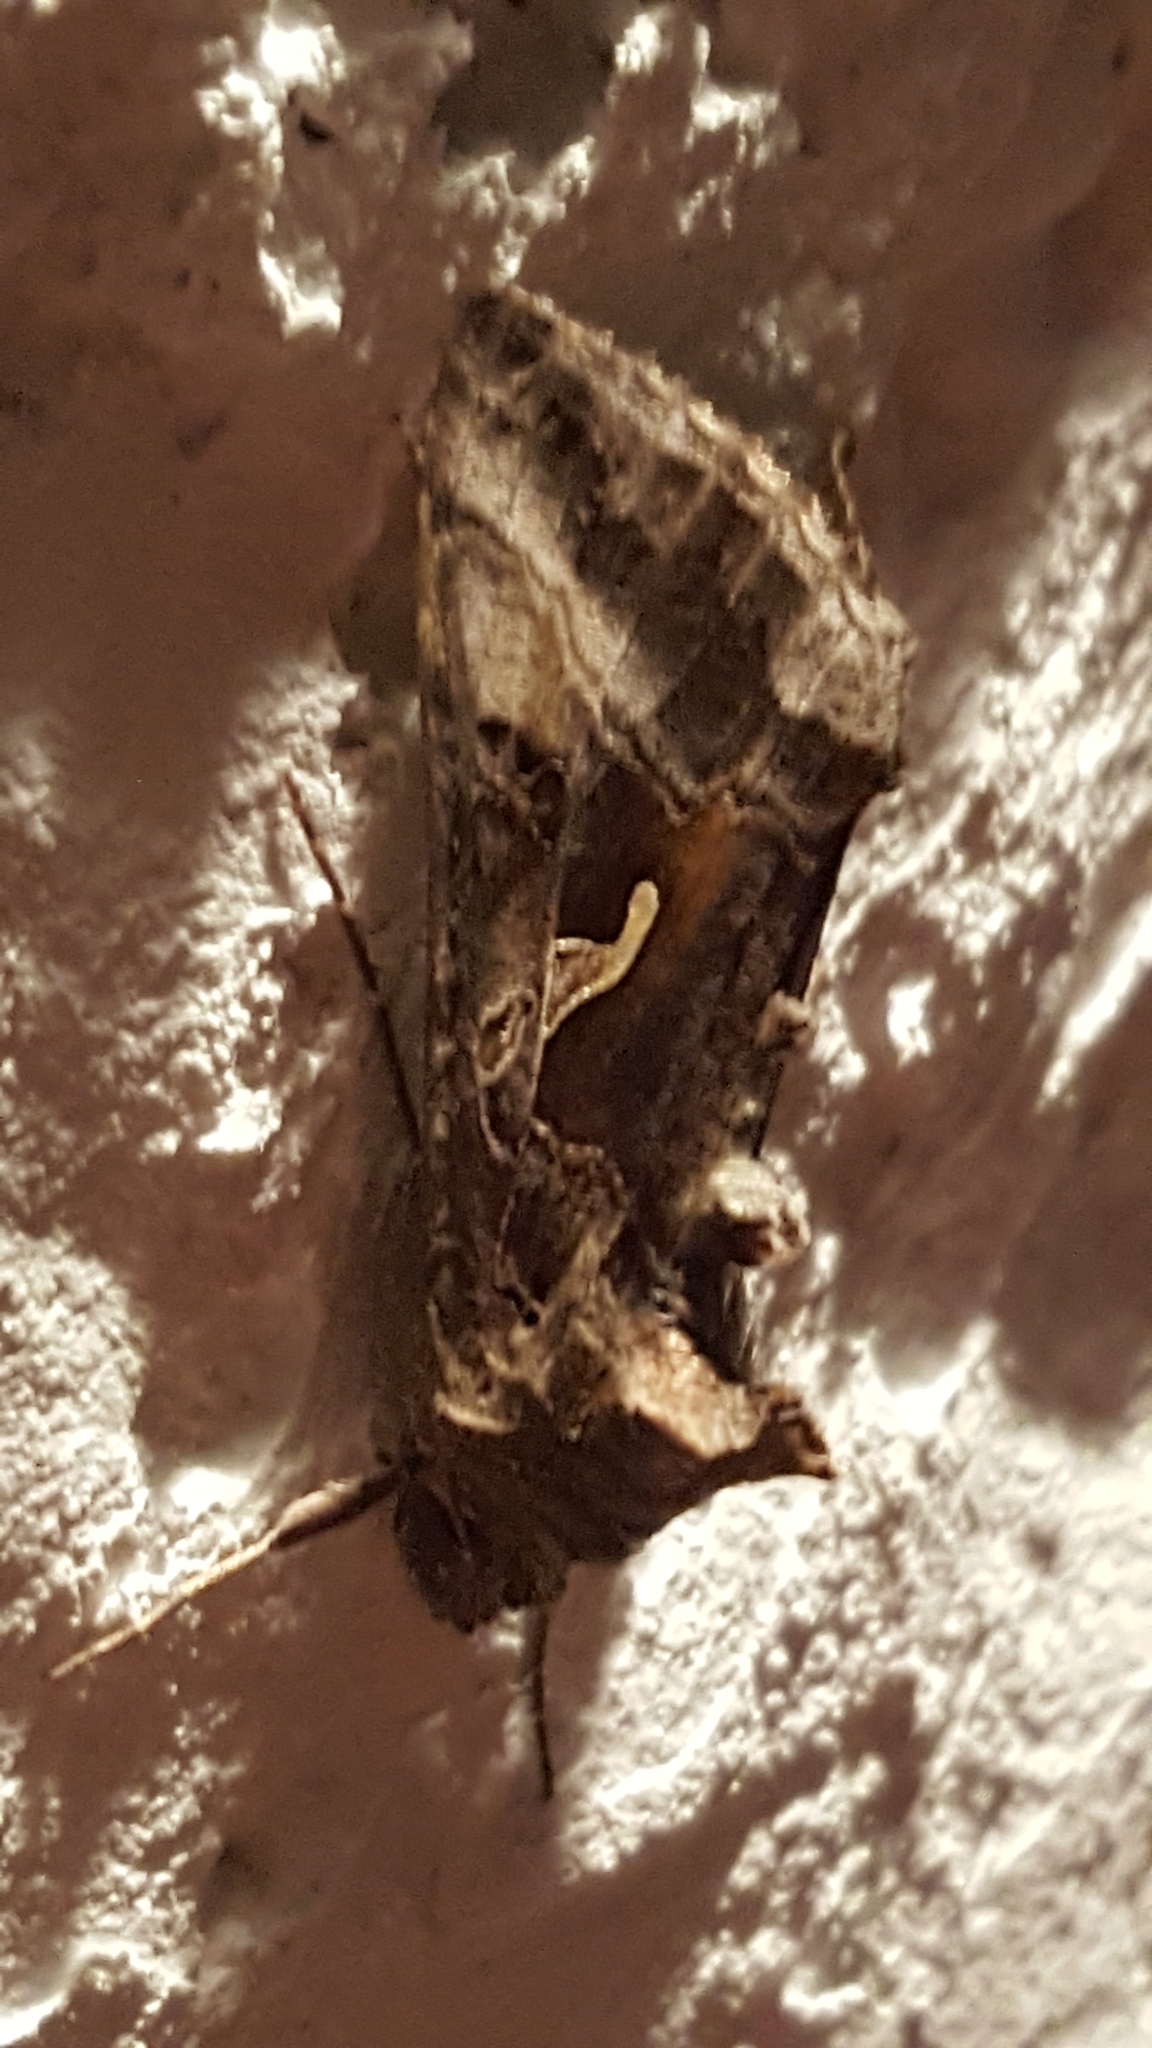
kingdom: Animalia
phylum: Arthropoda
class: Insecta
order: Lepidoptera
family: Noctuidae
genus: Autographa
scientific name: Autographa gamma
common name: Silver y
